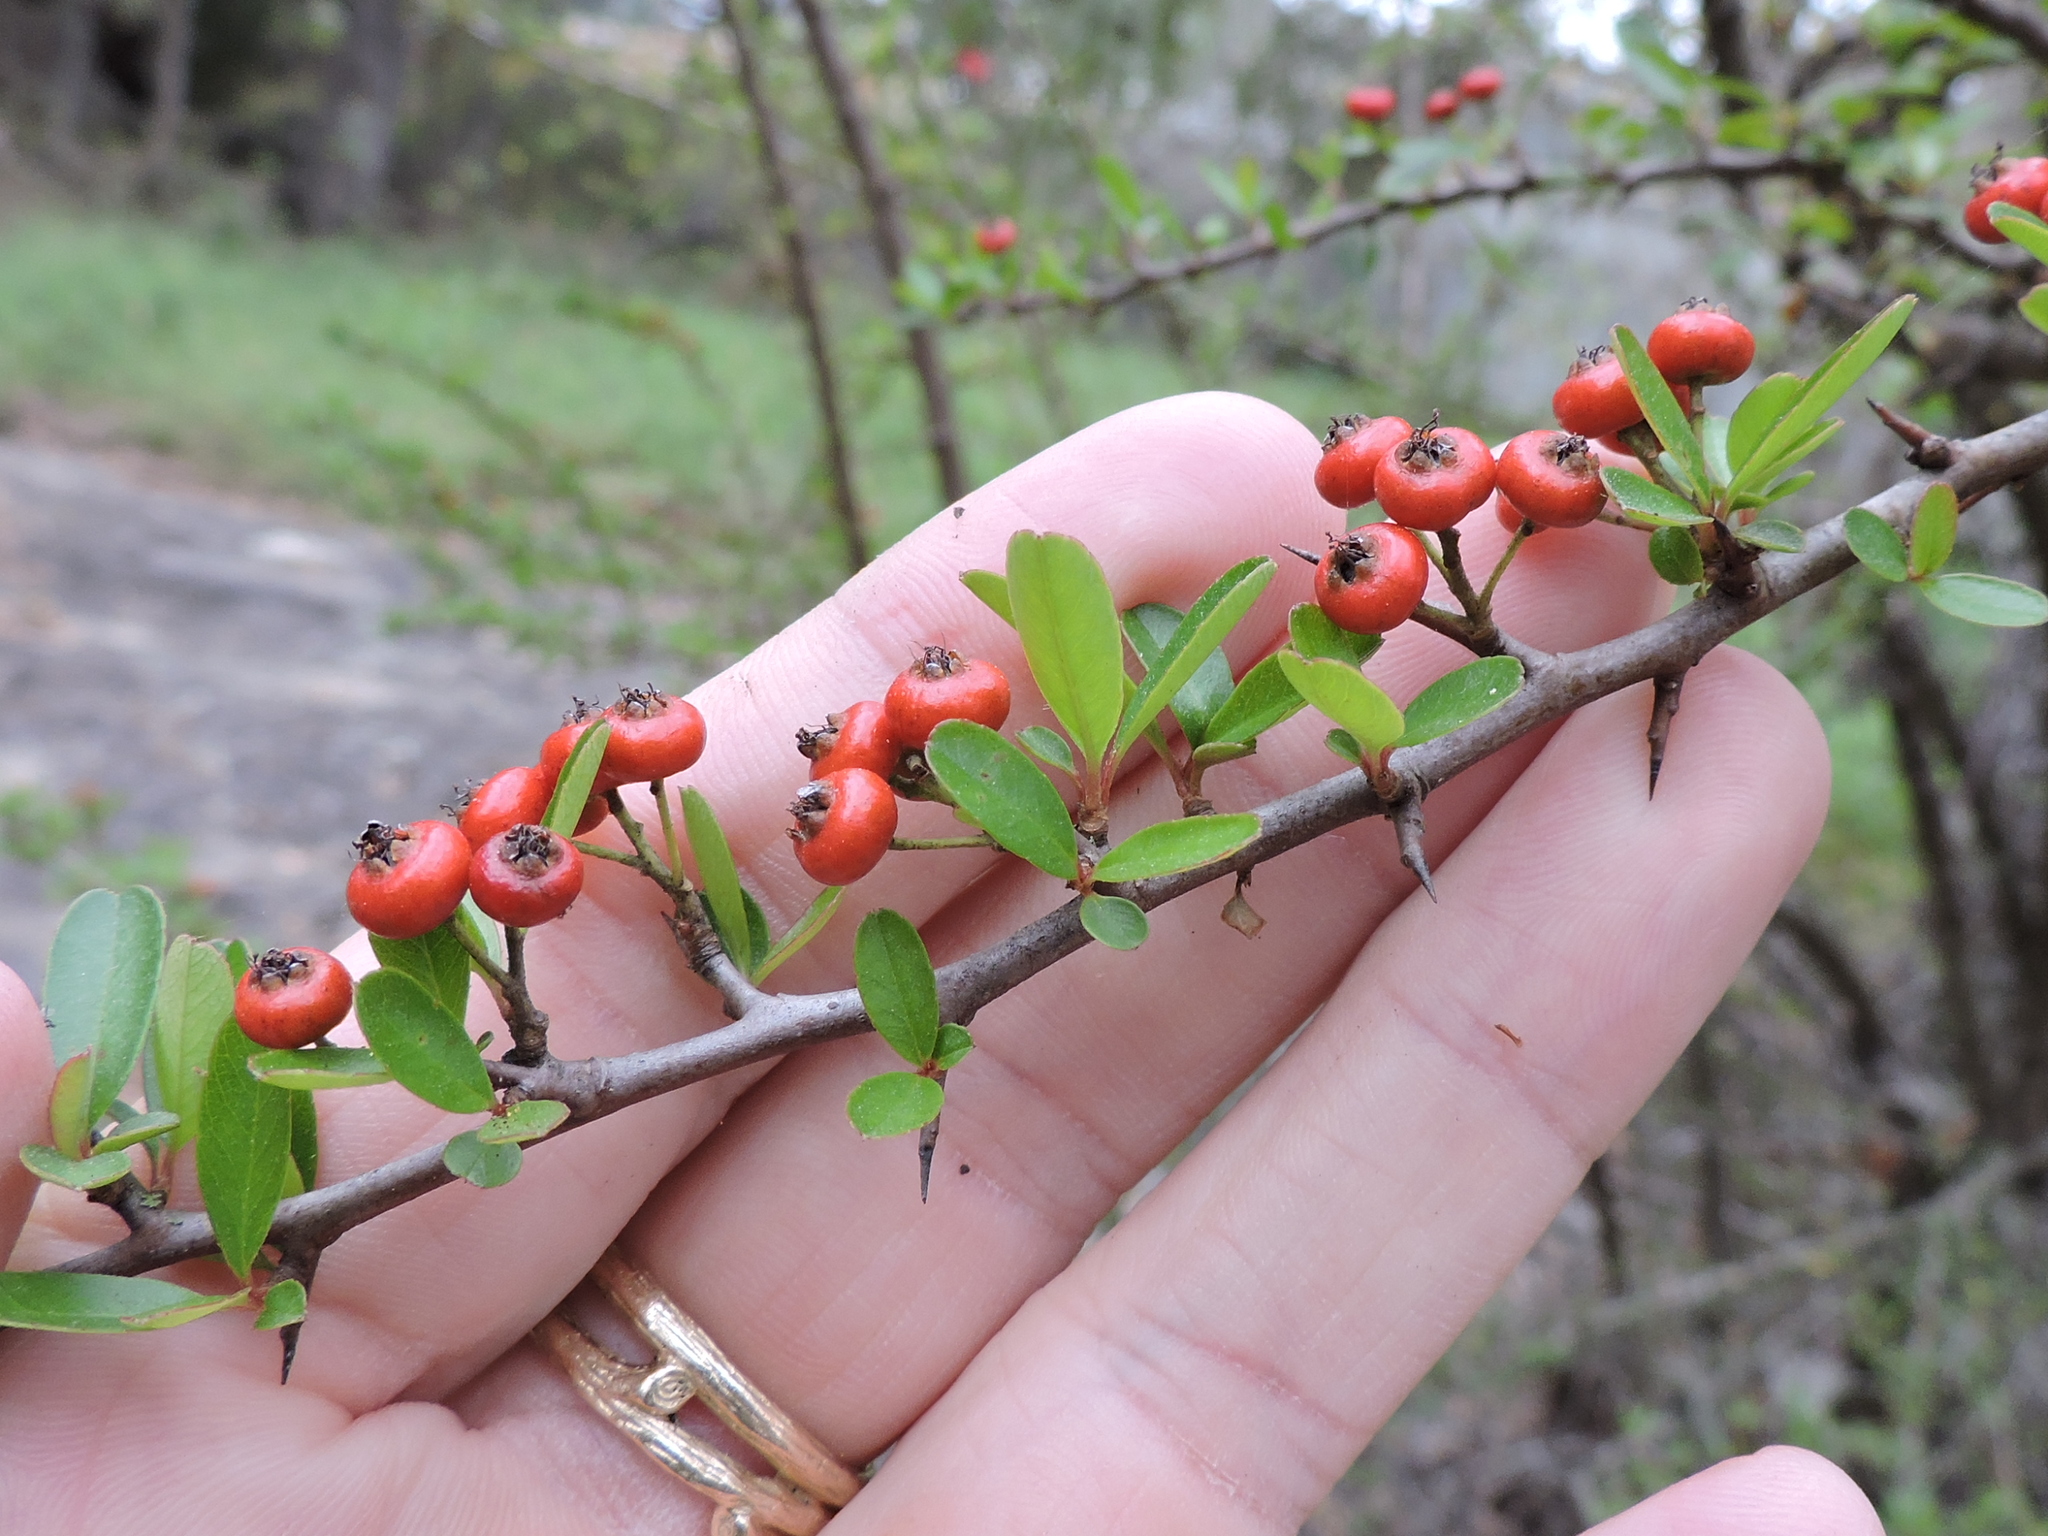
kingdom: Plantae
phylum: Tracheophyta
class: Magnoliopsida
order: Rosales
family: Rosaceae
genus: Pyracantha
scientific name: Pyracantha koidzumii
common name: Formosa firethorn
